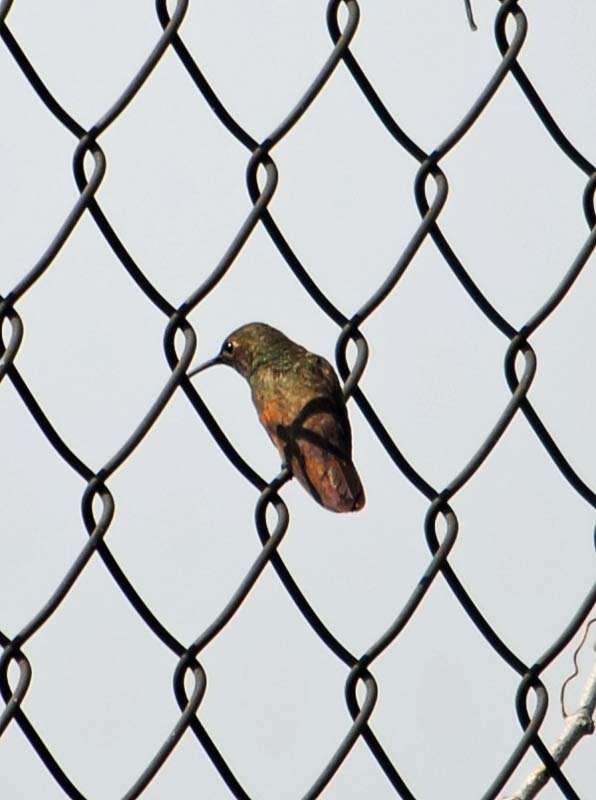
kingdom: Animalia
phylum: Chordata
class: Aves
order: Apodiformes
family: Trochilidae
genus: Saucerottia
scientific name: Saucerottia beryllina
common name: Berylline hummingbird
